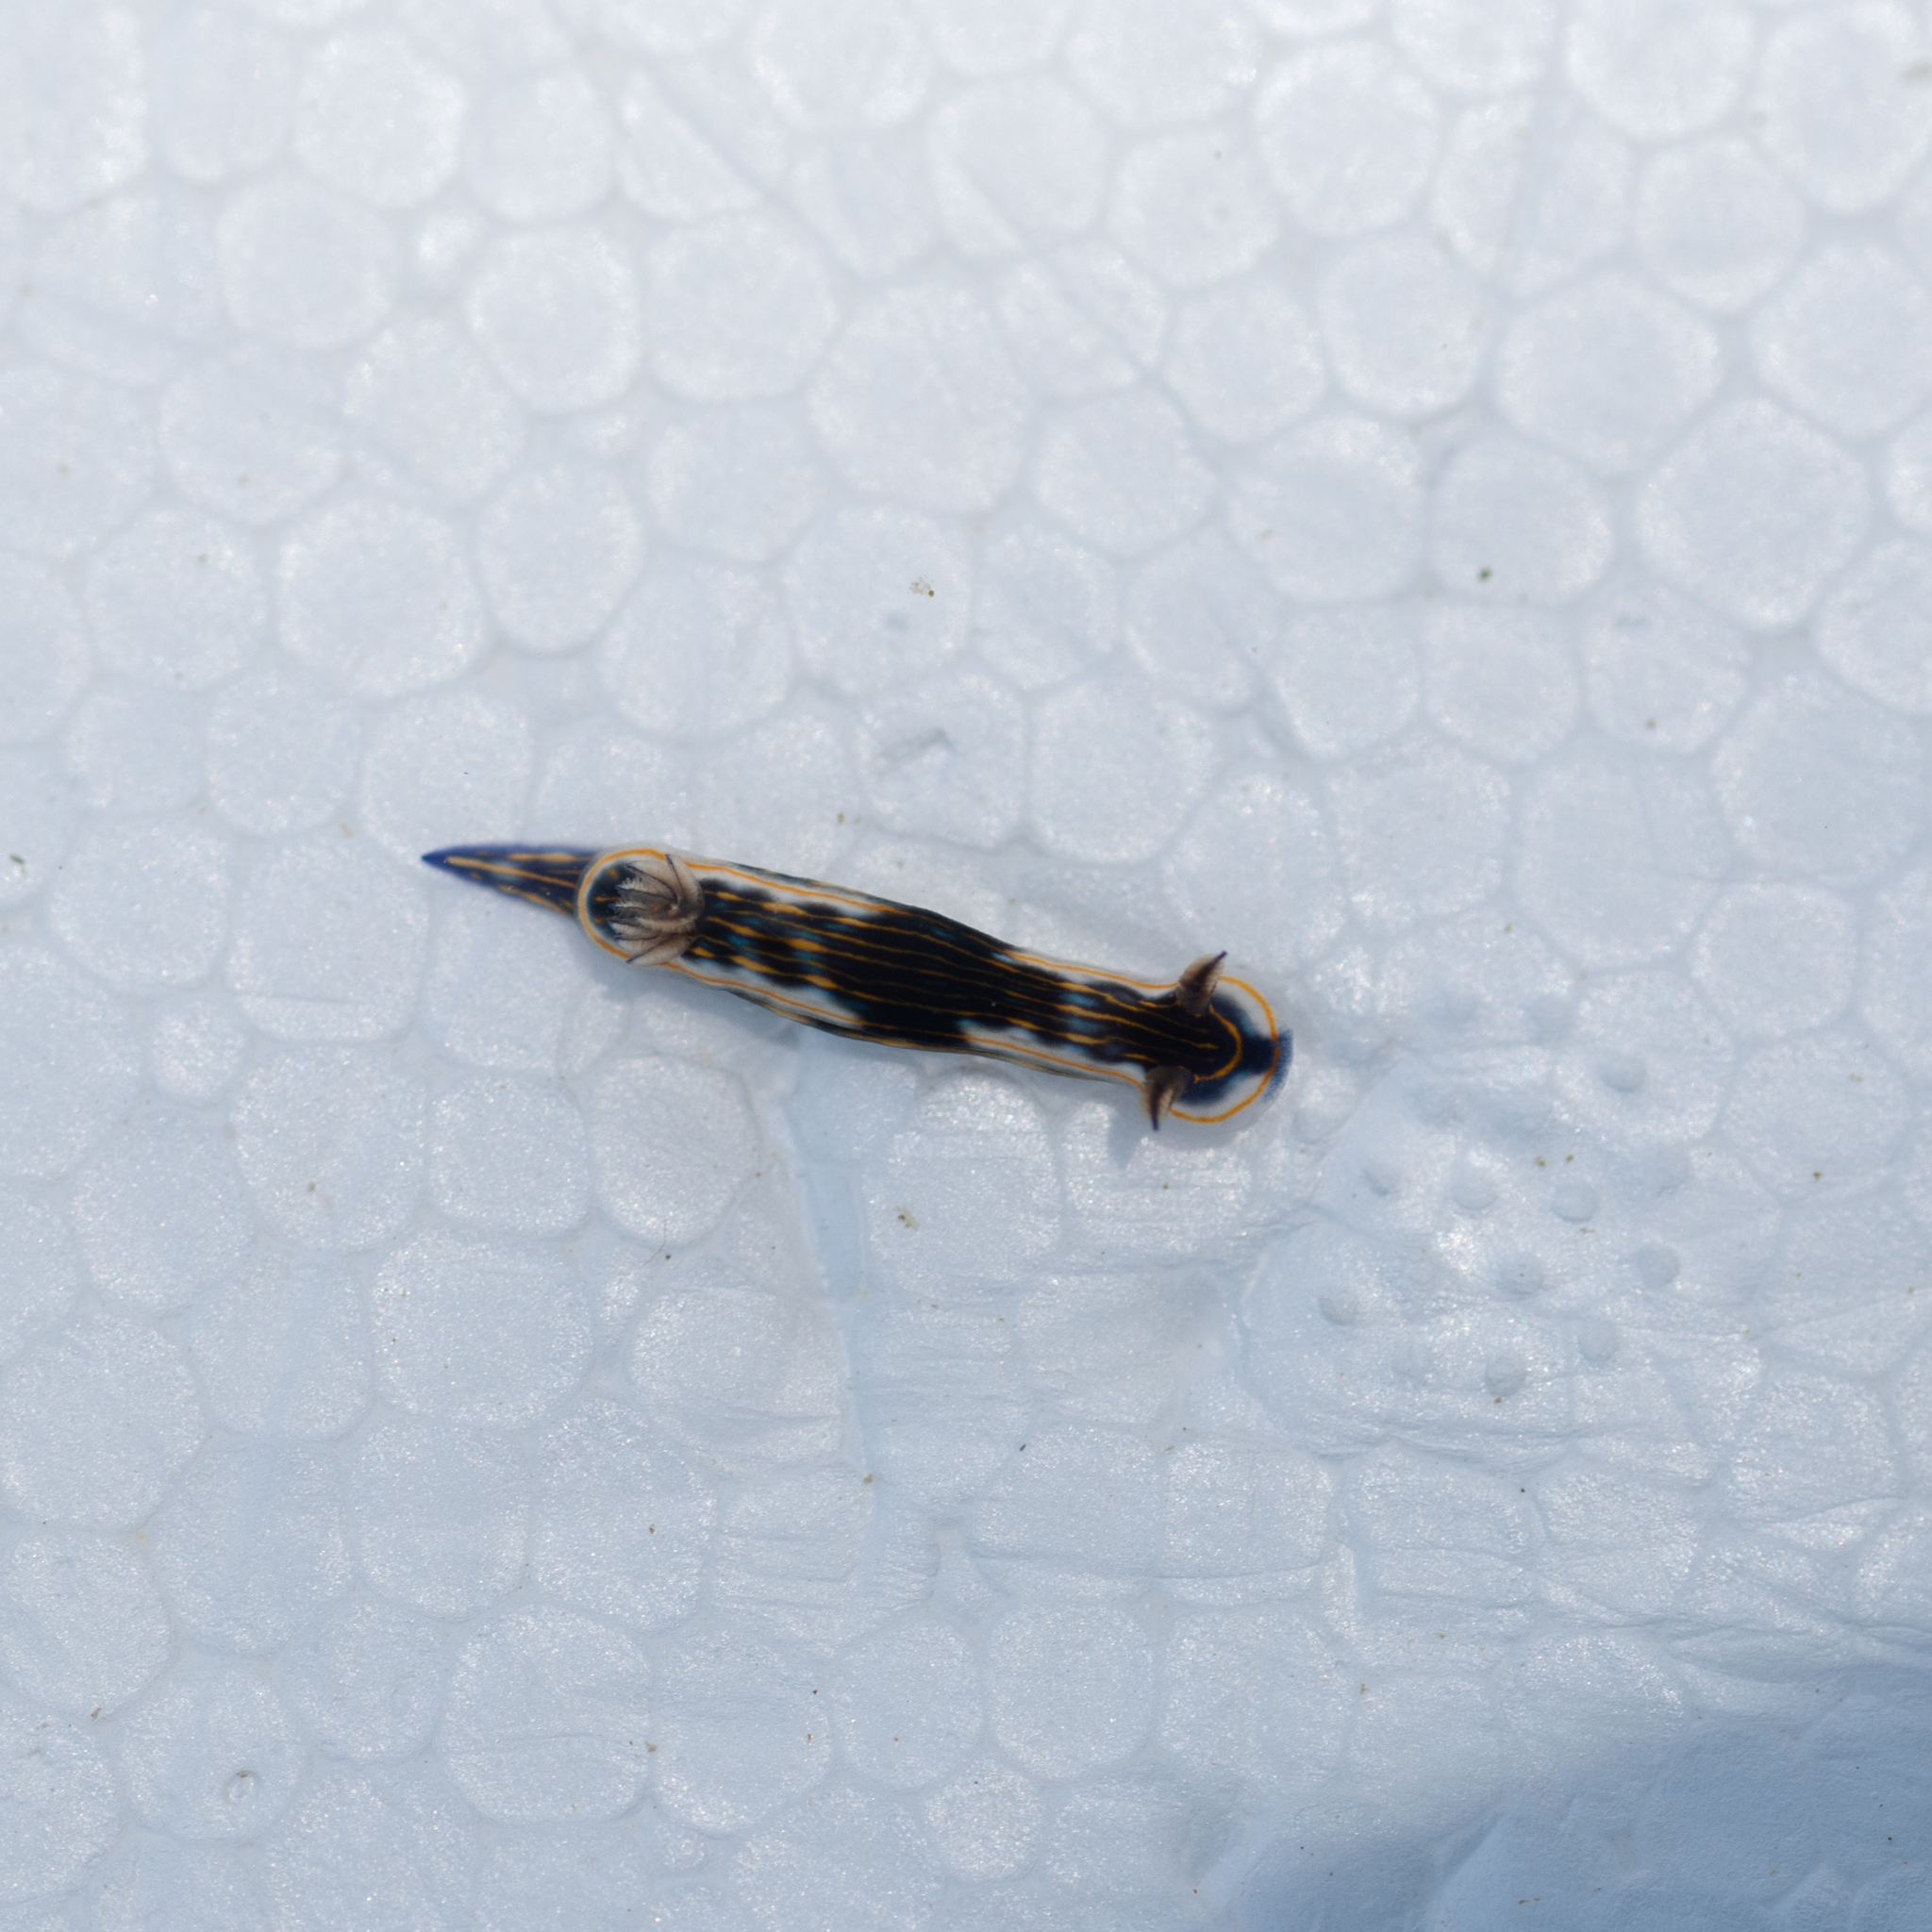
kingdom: Animalia
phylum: Mollusca
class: Gastropoda
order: Nudibranchia
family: Chromodorididae
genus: Felimare
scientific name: Felimare ruthae
